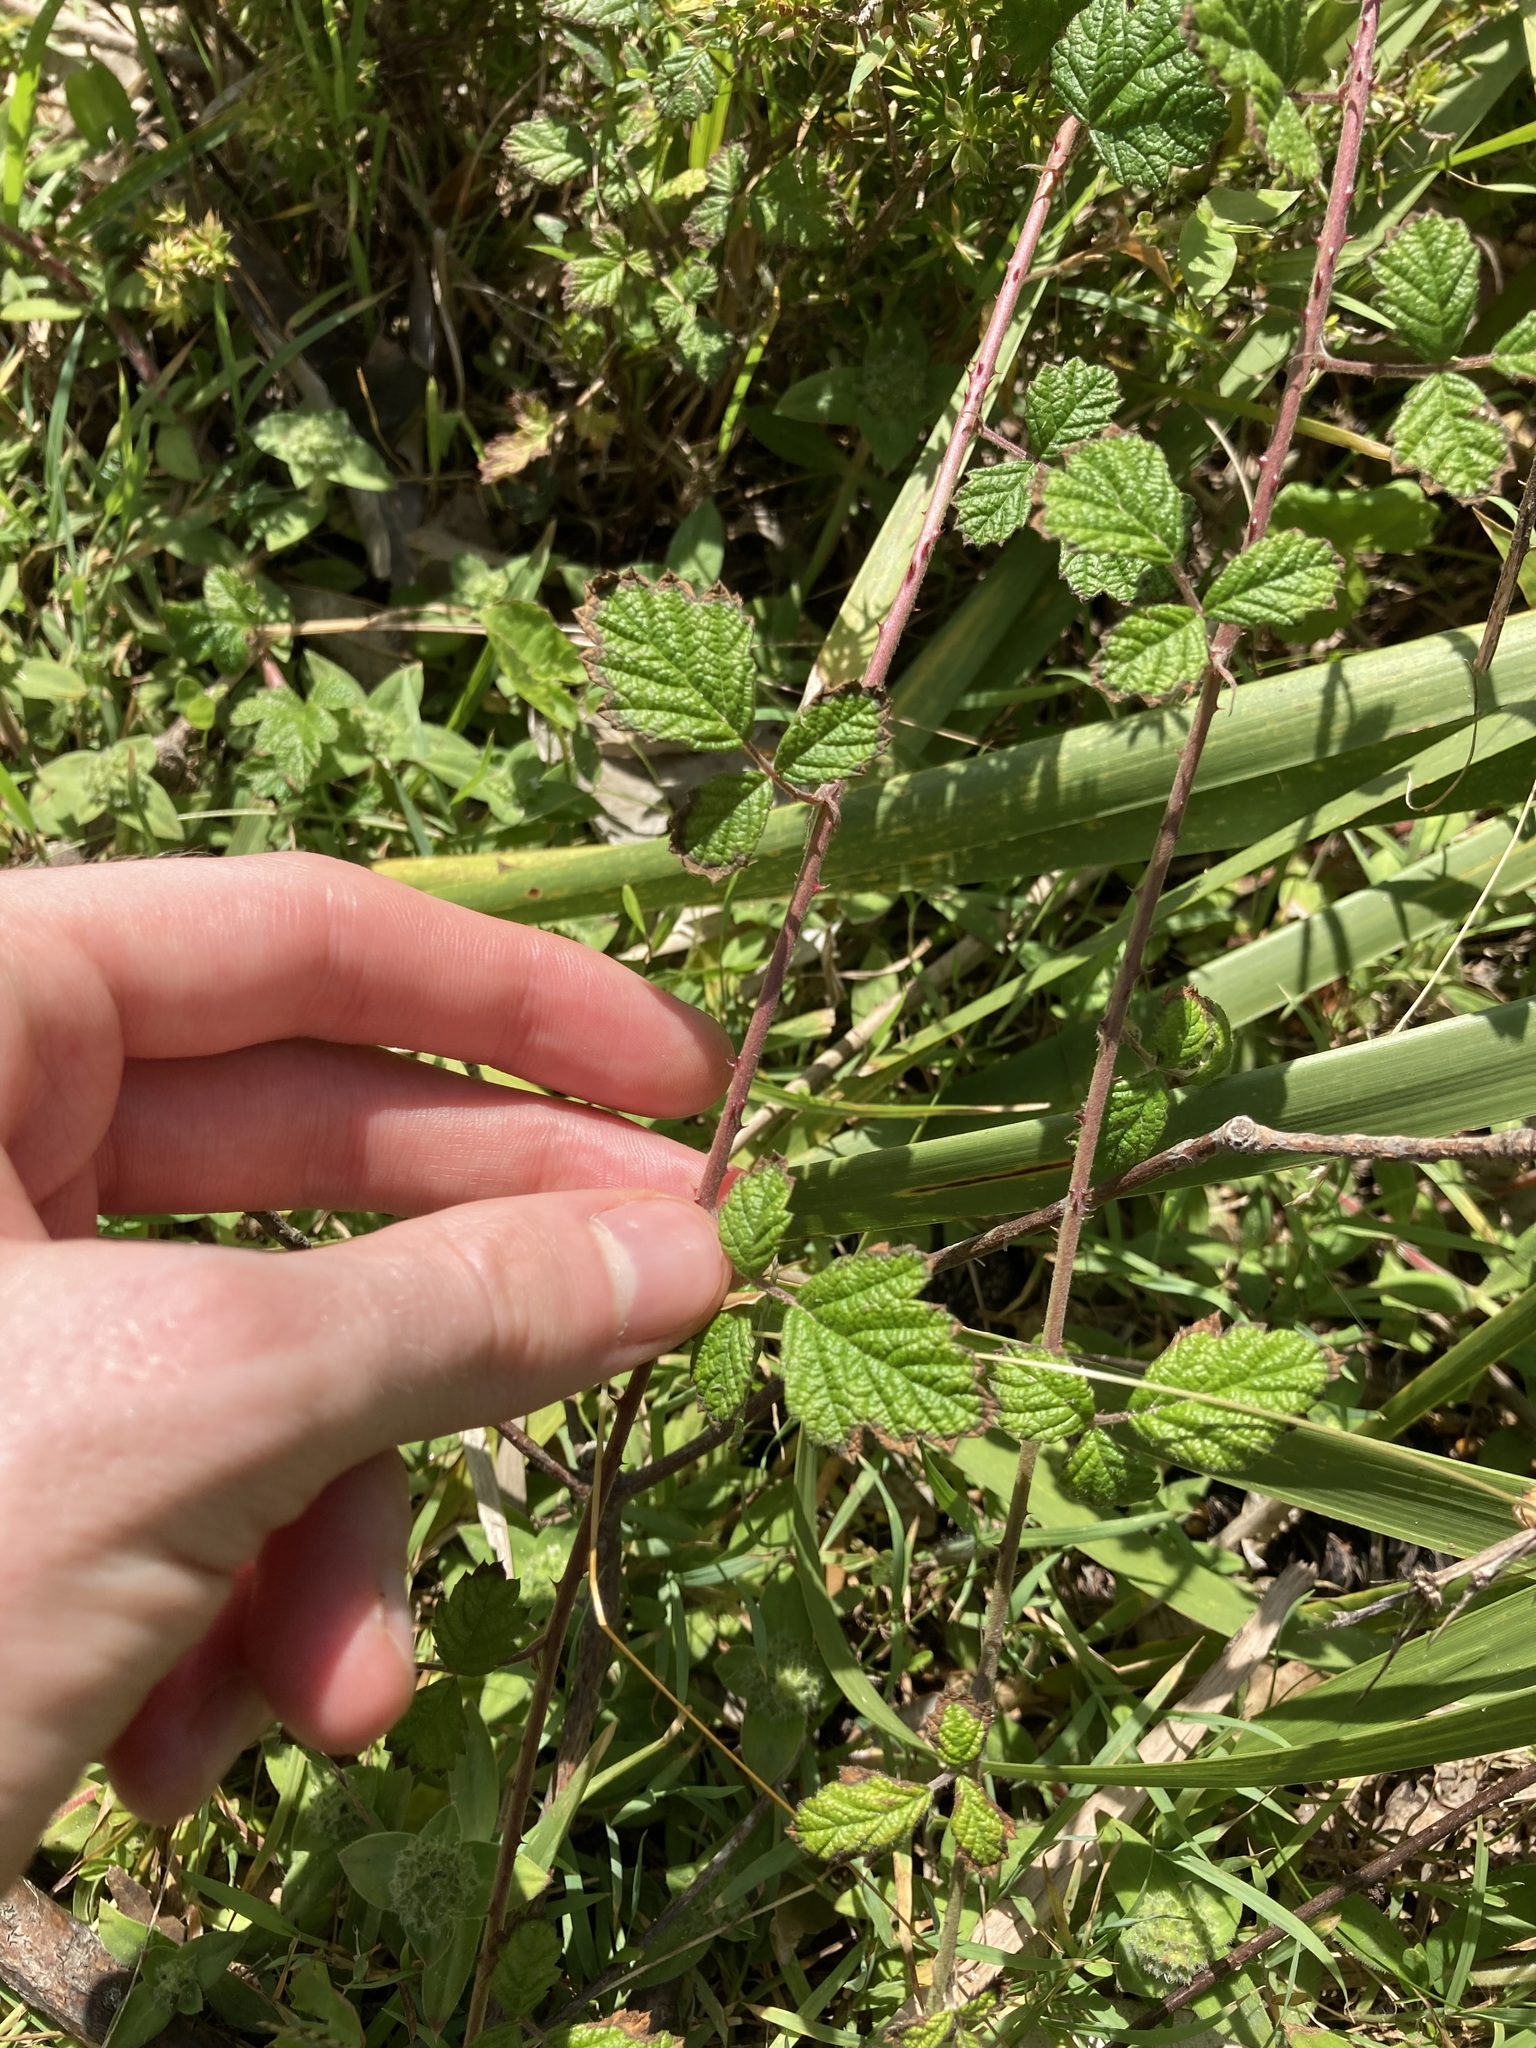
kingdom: Plantae
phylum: Tracheophyta
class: Magnoliopsida
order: Rosales
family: Rosaceae
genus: Rubus
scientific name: Rubus parvifolius
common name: Threeleaf blackberry
